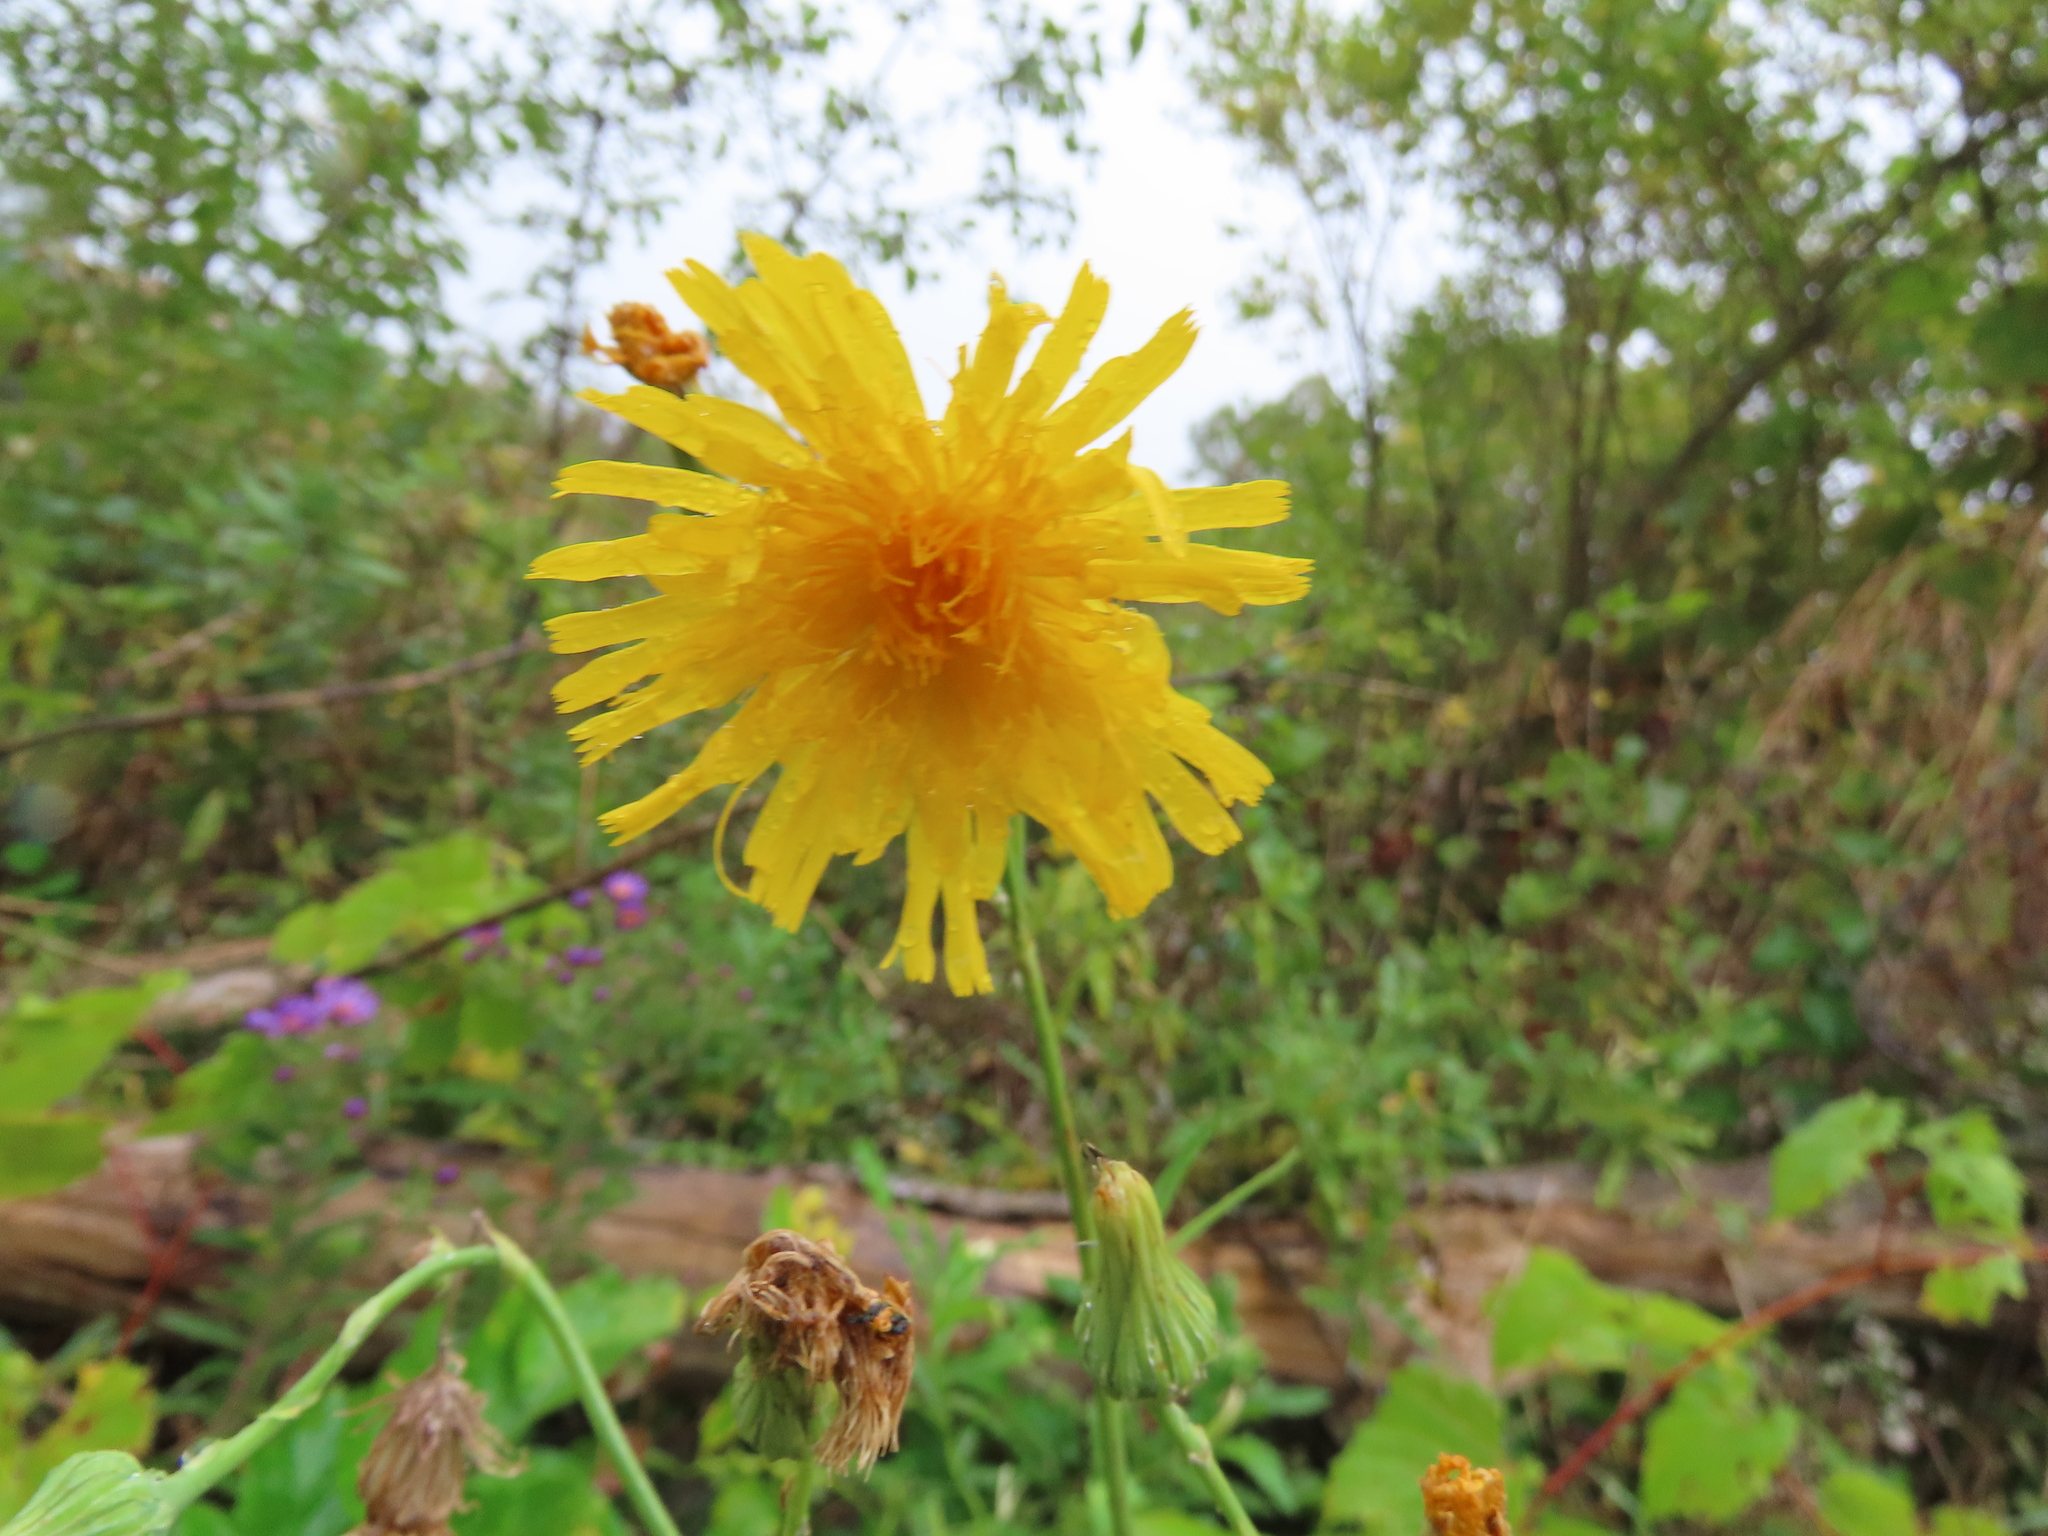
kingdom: Plantae
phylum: Tracheophyta
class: Magnoliopsida
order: Asterales
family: Asteraceae
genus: Sonchus
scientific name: Sonchus arvensis
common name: Perennial sow-thistle
